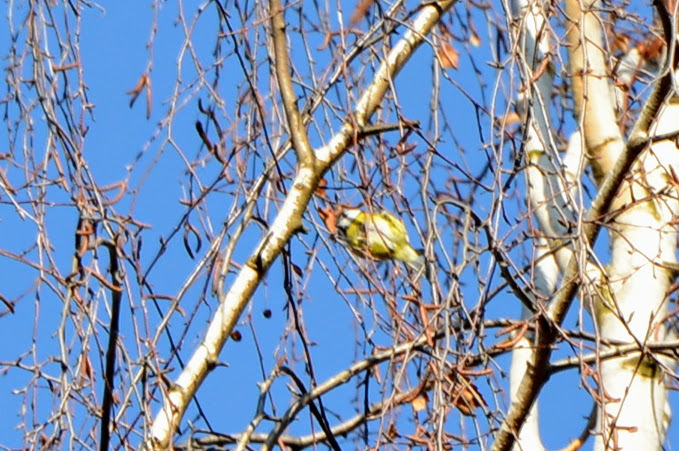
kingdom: Animalia
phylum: Chordata
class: Aves
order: Passeriformes
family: Paridae
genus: Cyanistes
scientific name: Cyanistes caeruleus
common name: Eurasian blue tit
